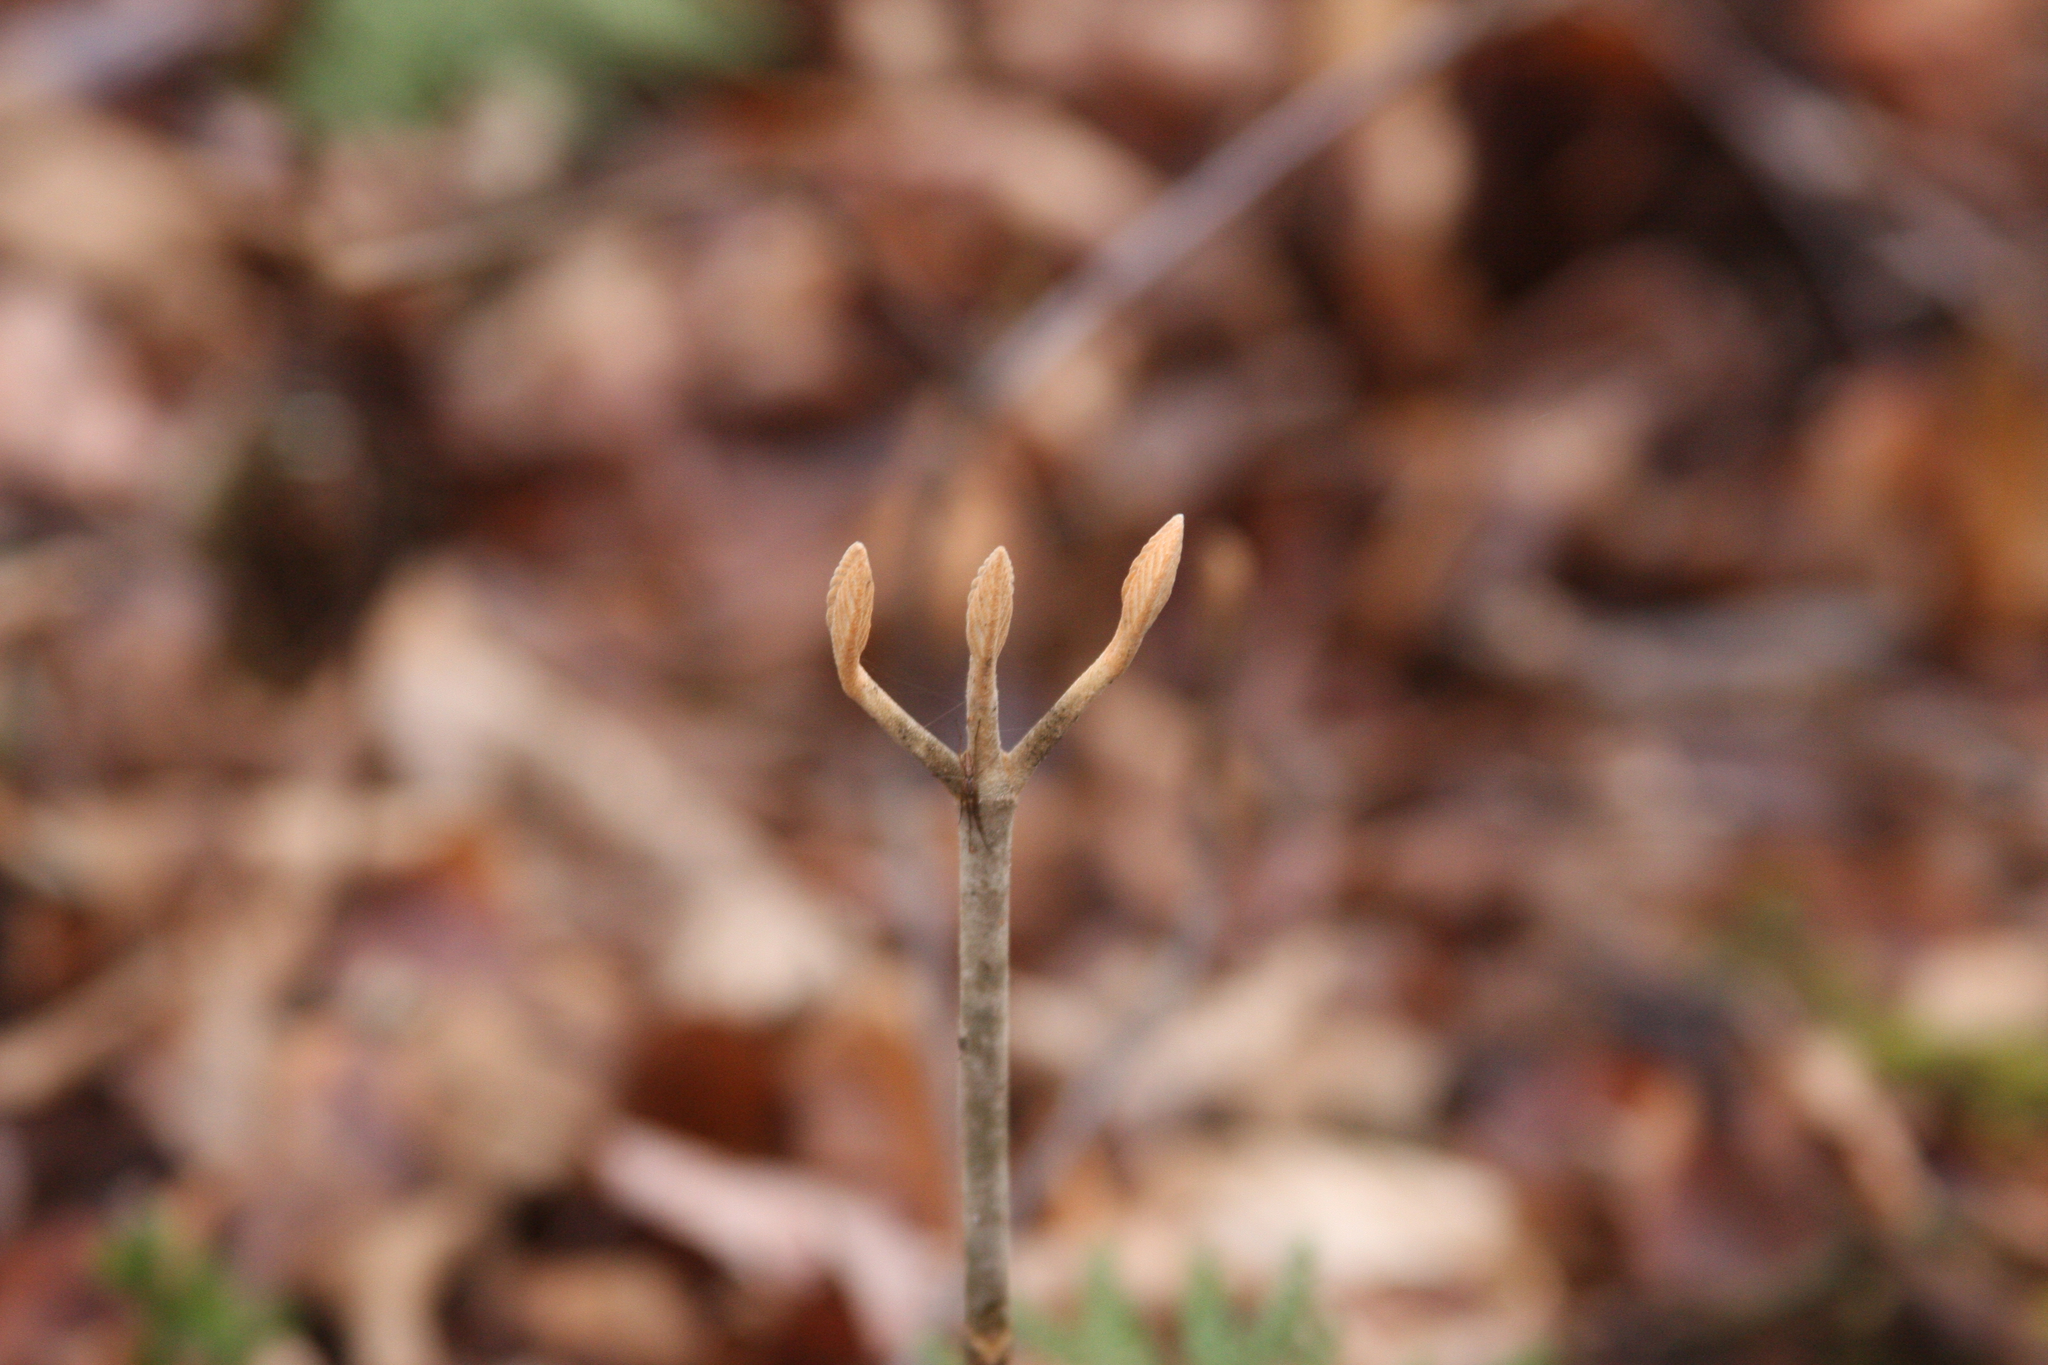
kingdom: Plantae
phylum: Tracheophyta
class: Magnoliopsida
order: Dipsacales
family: Viburnaceae
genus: Viburnum
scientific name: Viburnum lantanoides
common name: Hobblebush
